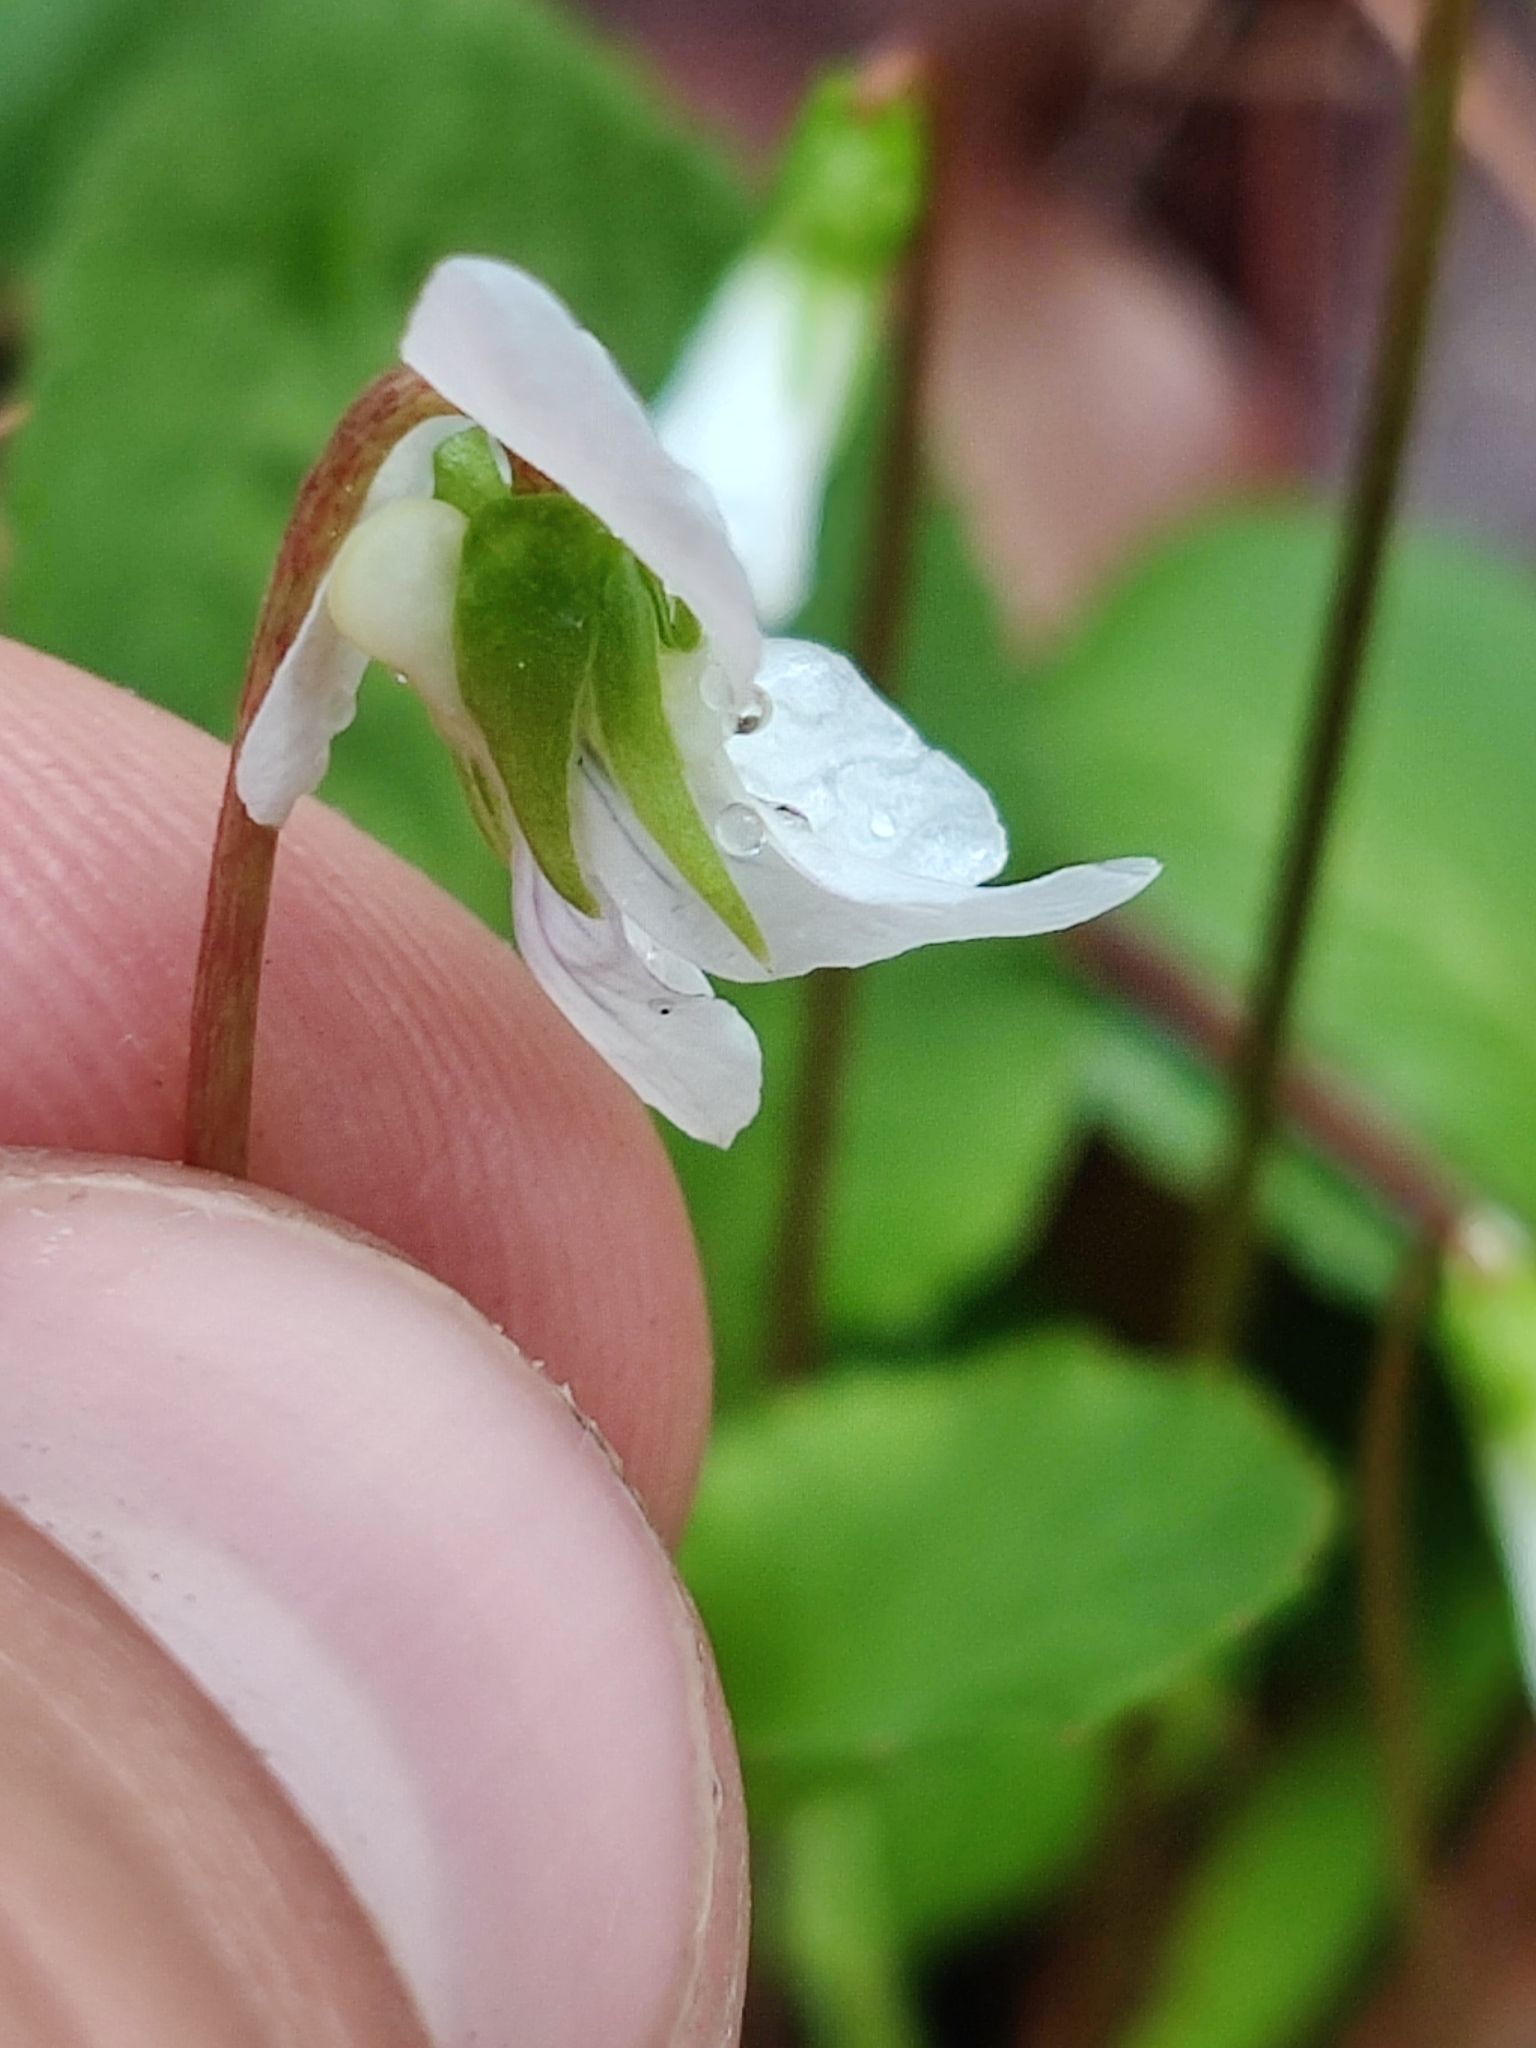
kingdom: Plantae
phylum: Tracheophyta
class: Magnoliopsida
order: Malpighiales
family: Violaceae
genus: Viola
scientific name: Viola primulifolia
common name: Primrose-leaf violet
